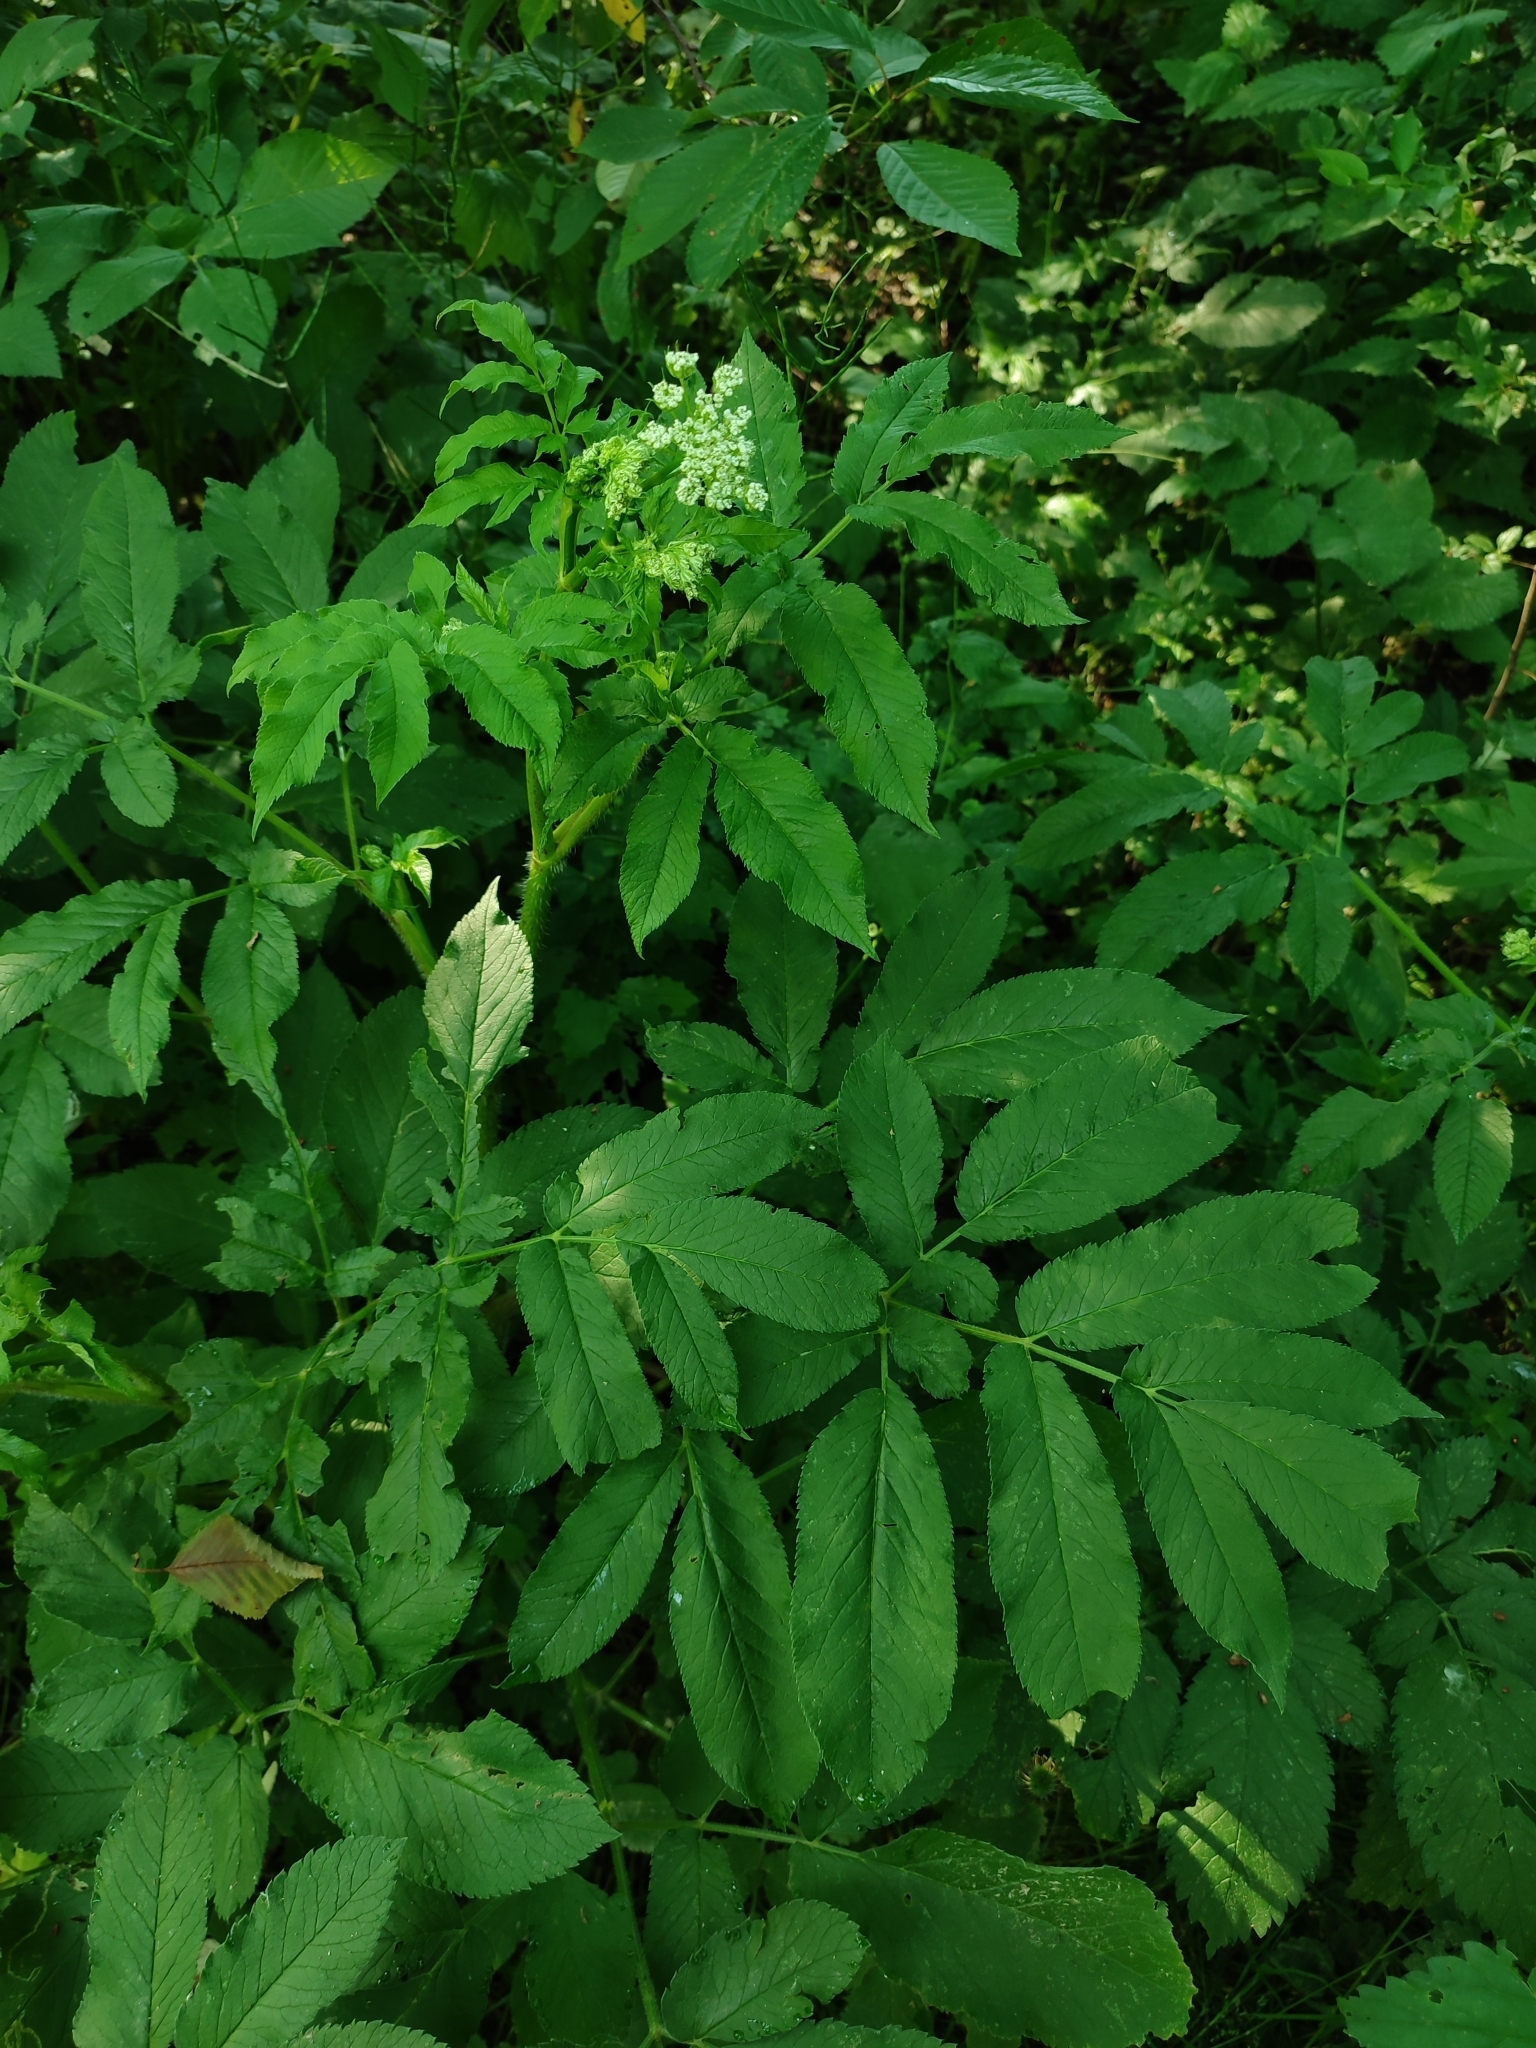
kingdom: Plantae
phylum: Tracheophyta
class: Magnoliopsida
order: Apiales
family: Apiaceae
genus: Chaerophyllum
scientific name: Chaerophyllum aromaticum
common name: Broadleaf chervil
